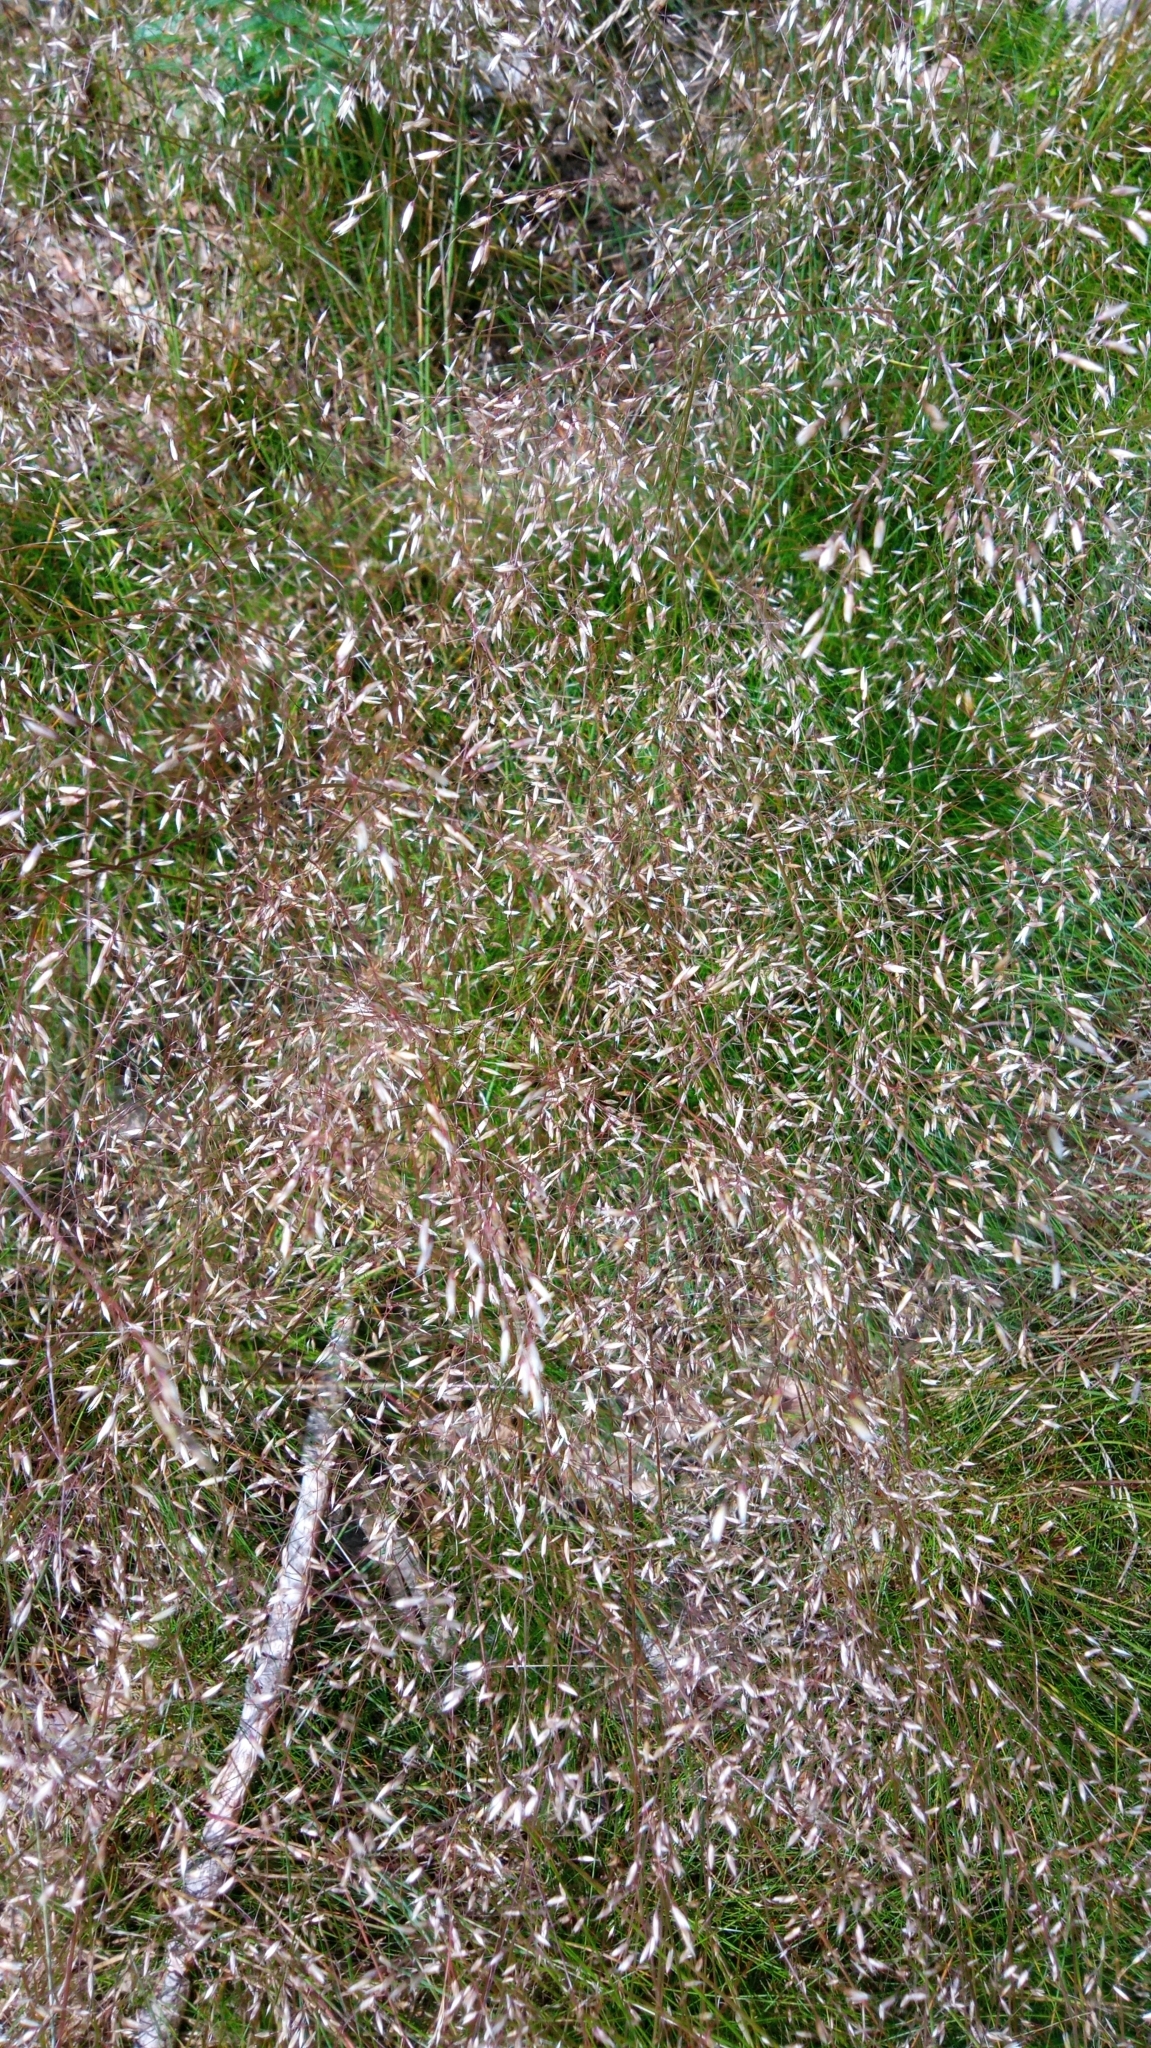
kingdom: Plantae
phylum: Tracheophyta
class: Liliopsida
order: Poales
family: Poaceae
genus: Avenella
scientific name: Avenella flexuosa
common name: Wavy hairgrass
